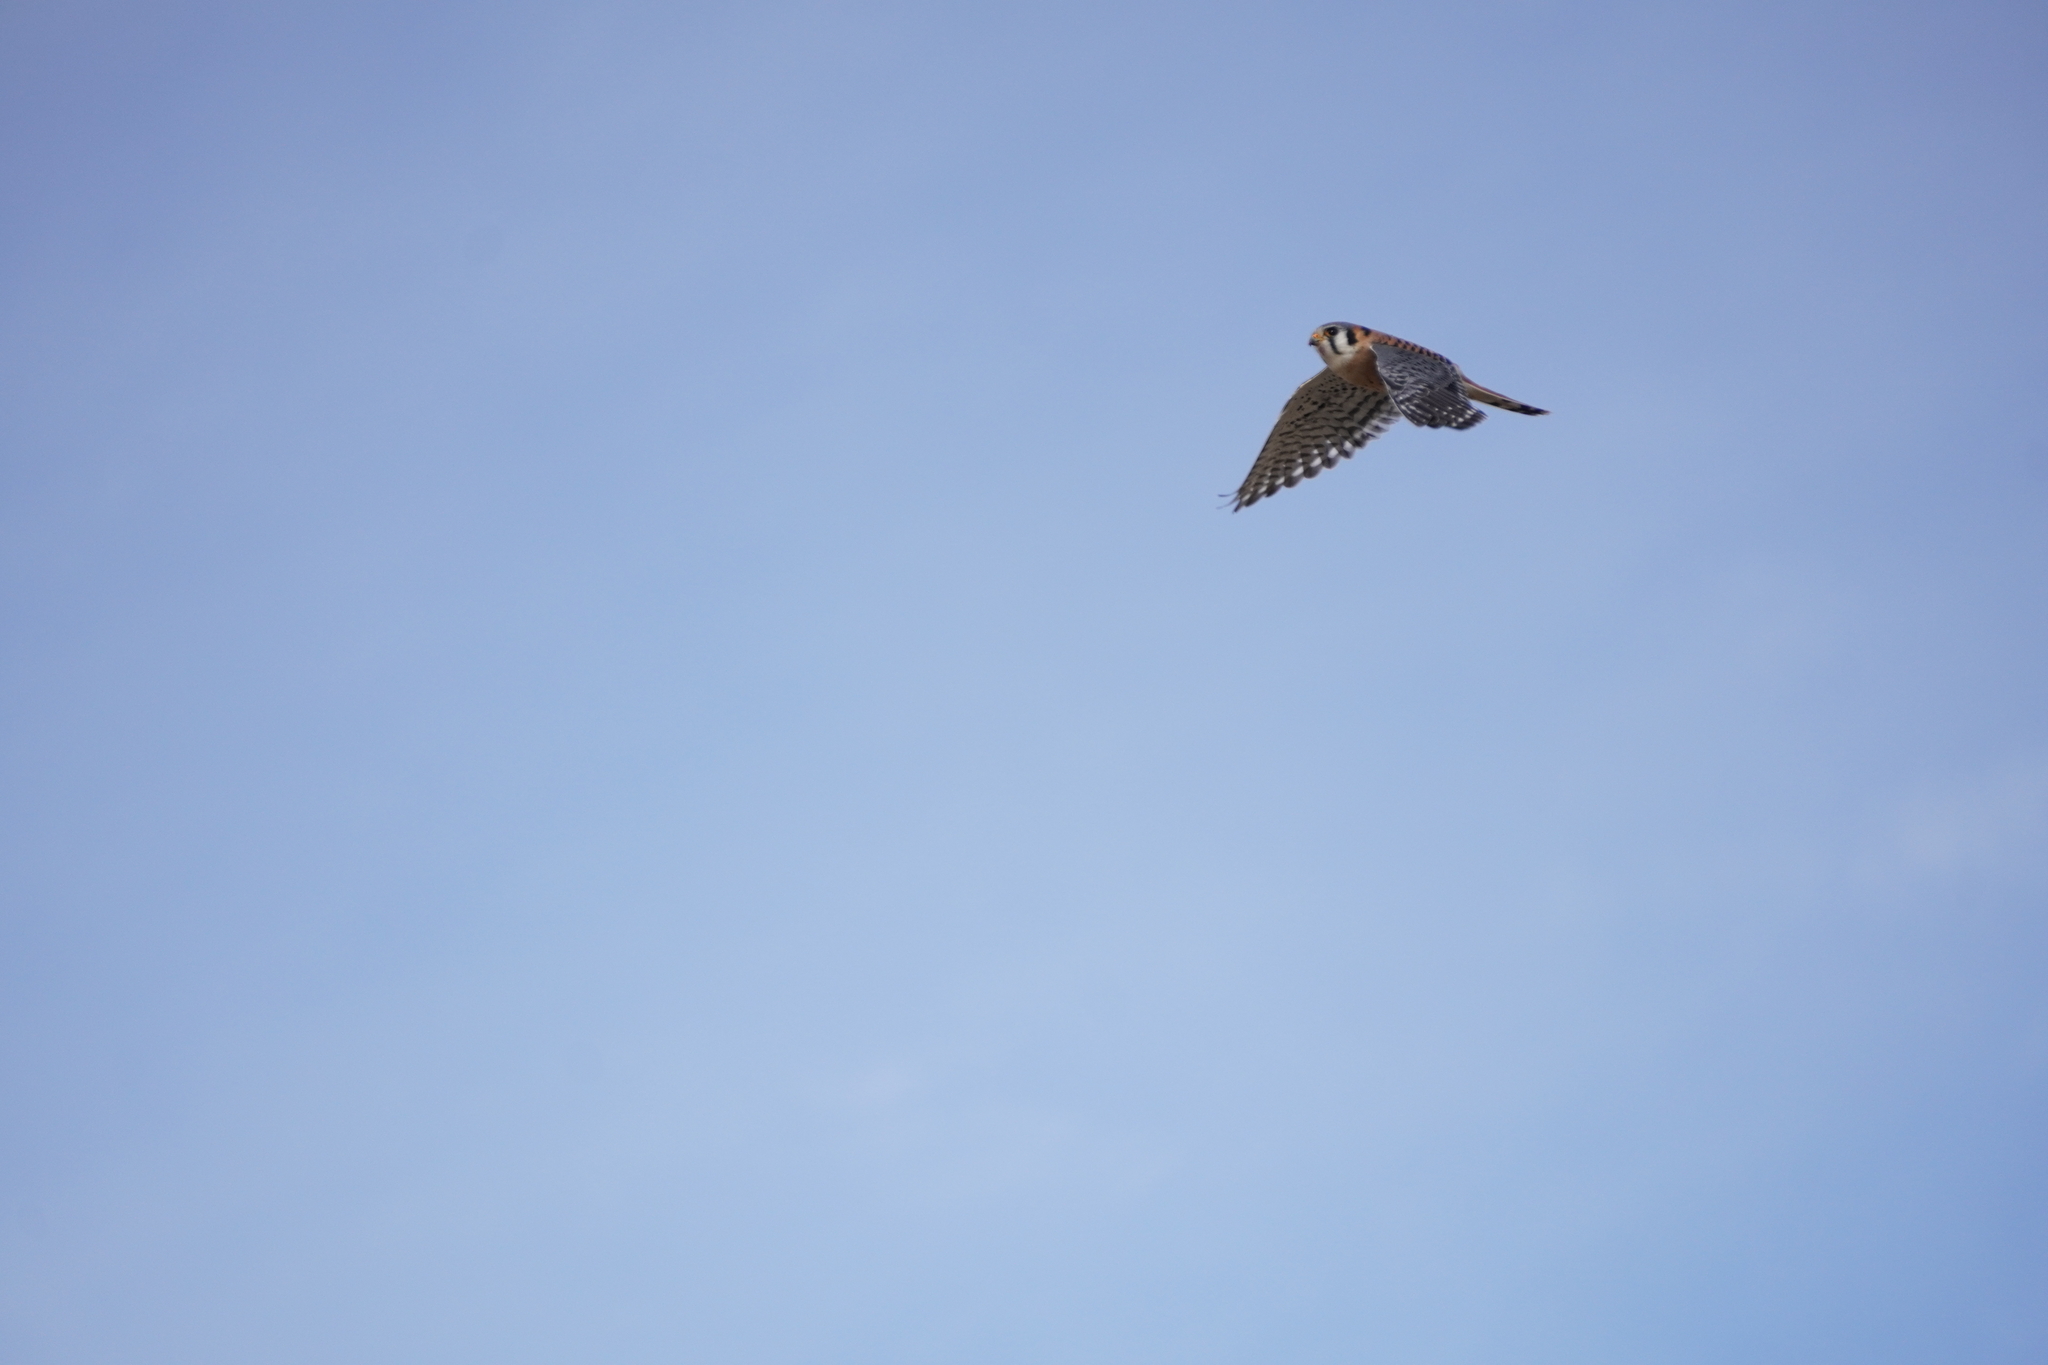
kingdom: Animalia
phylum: Chordata
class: Aves
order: Falconiformes
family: Falconidae
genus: Falco
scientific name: Falco sparverius
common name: American kestrel
